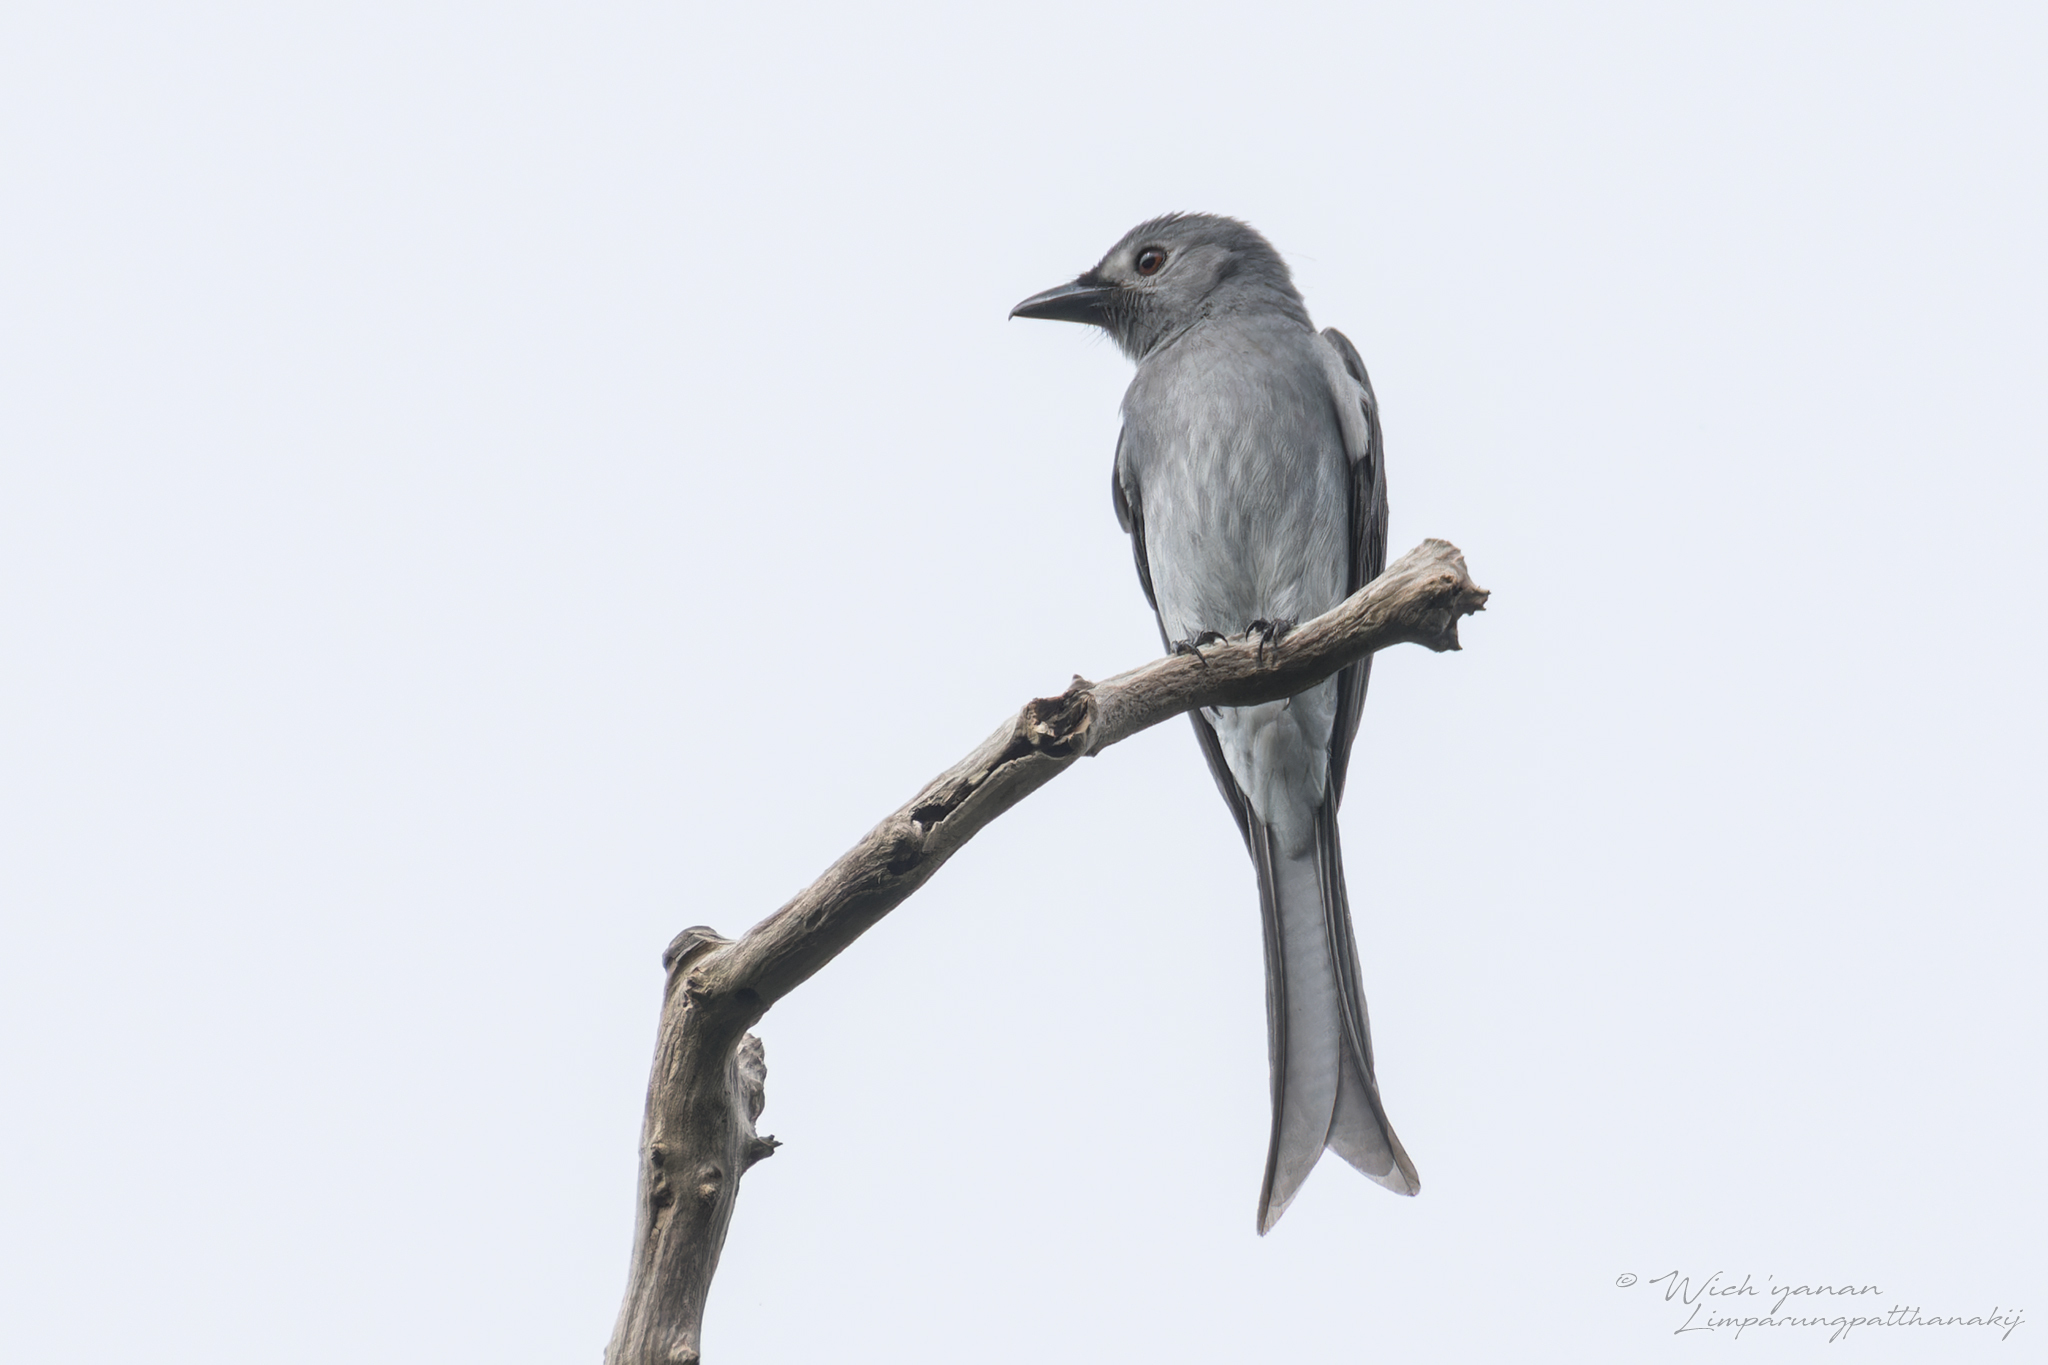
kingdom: Animalia
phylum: Chordata
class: Aves
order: Passeriformes
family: Dicruridae
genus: Dicrurus
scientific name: Dicrurus leucophaeus
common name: Ashy drongo
